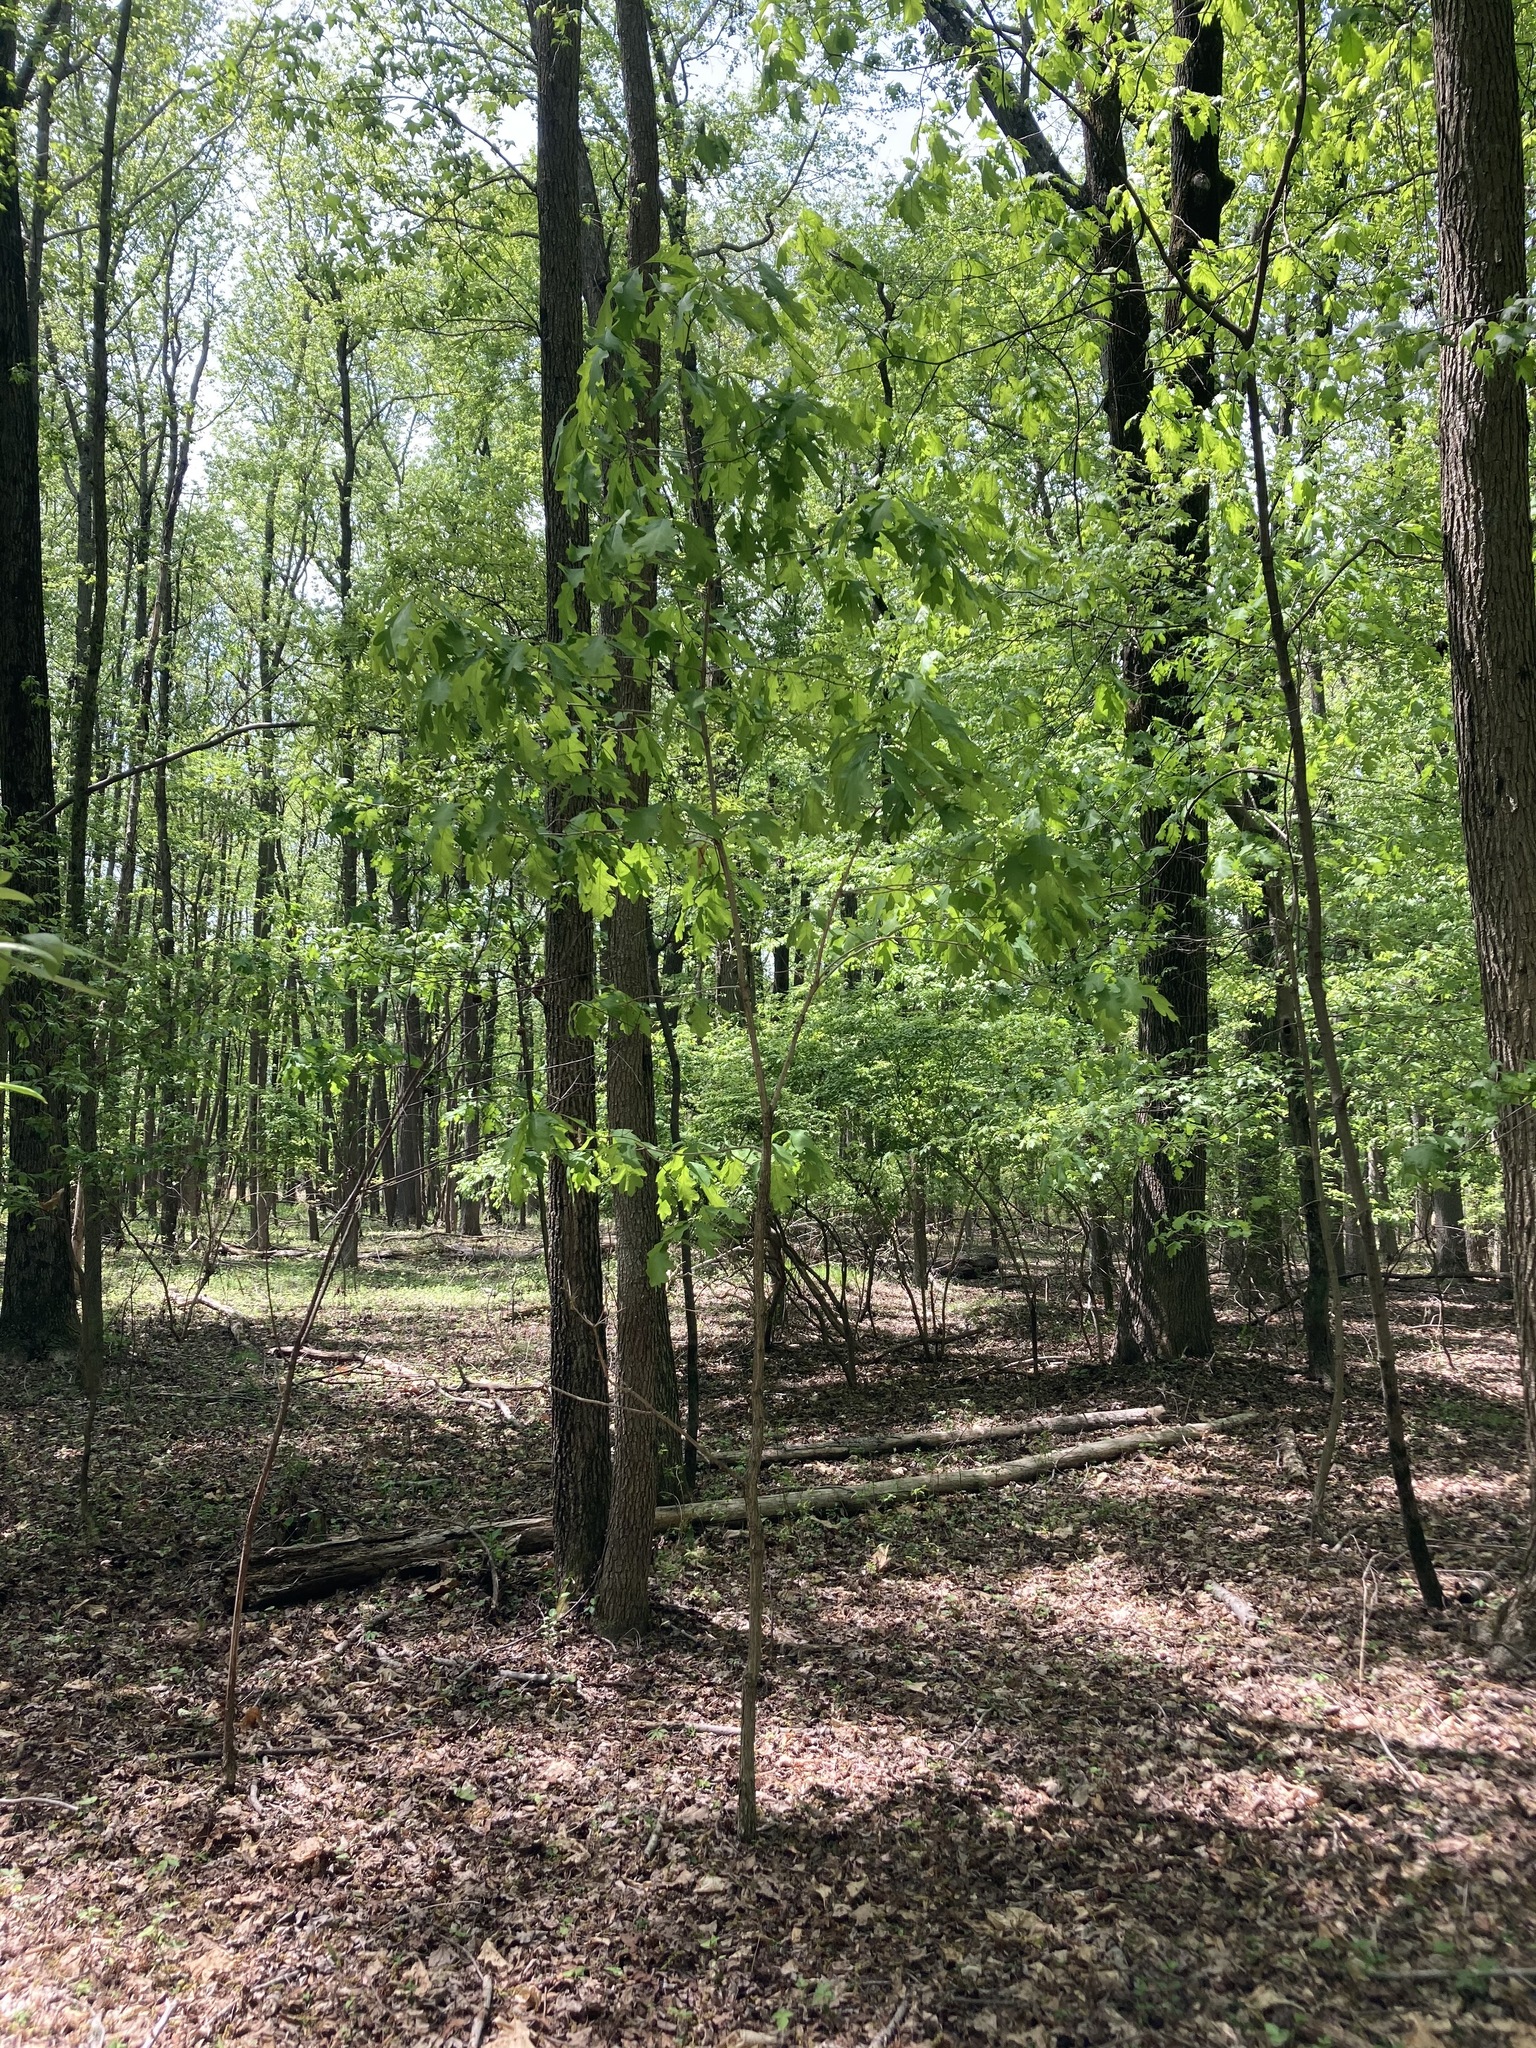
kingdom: Plantae
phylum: Tracheophyta
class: Magnoliopsida
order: Fagales
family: Fagaceae
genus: Quercus
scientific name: Quercus alba
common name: White oak
